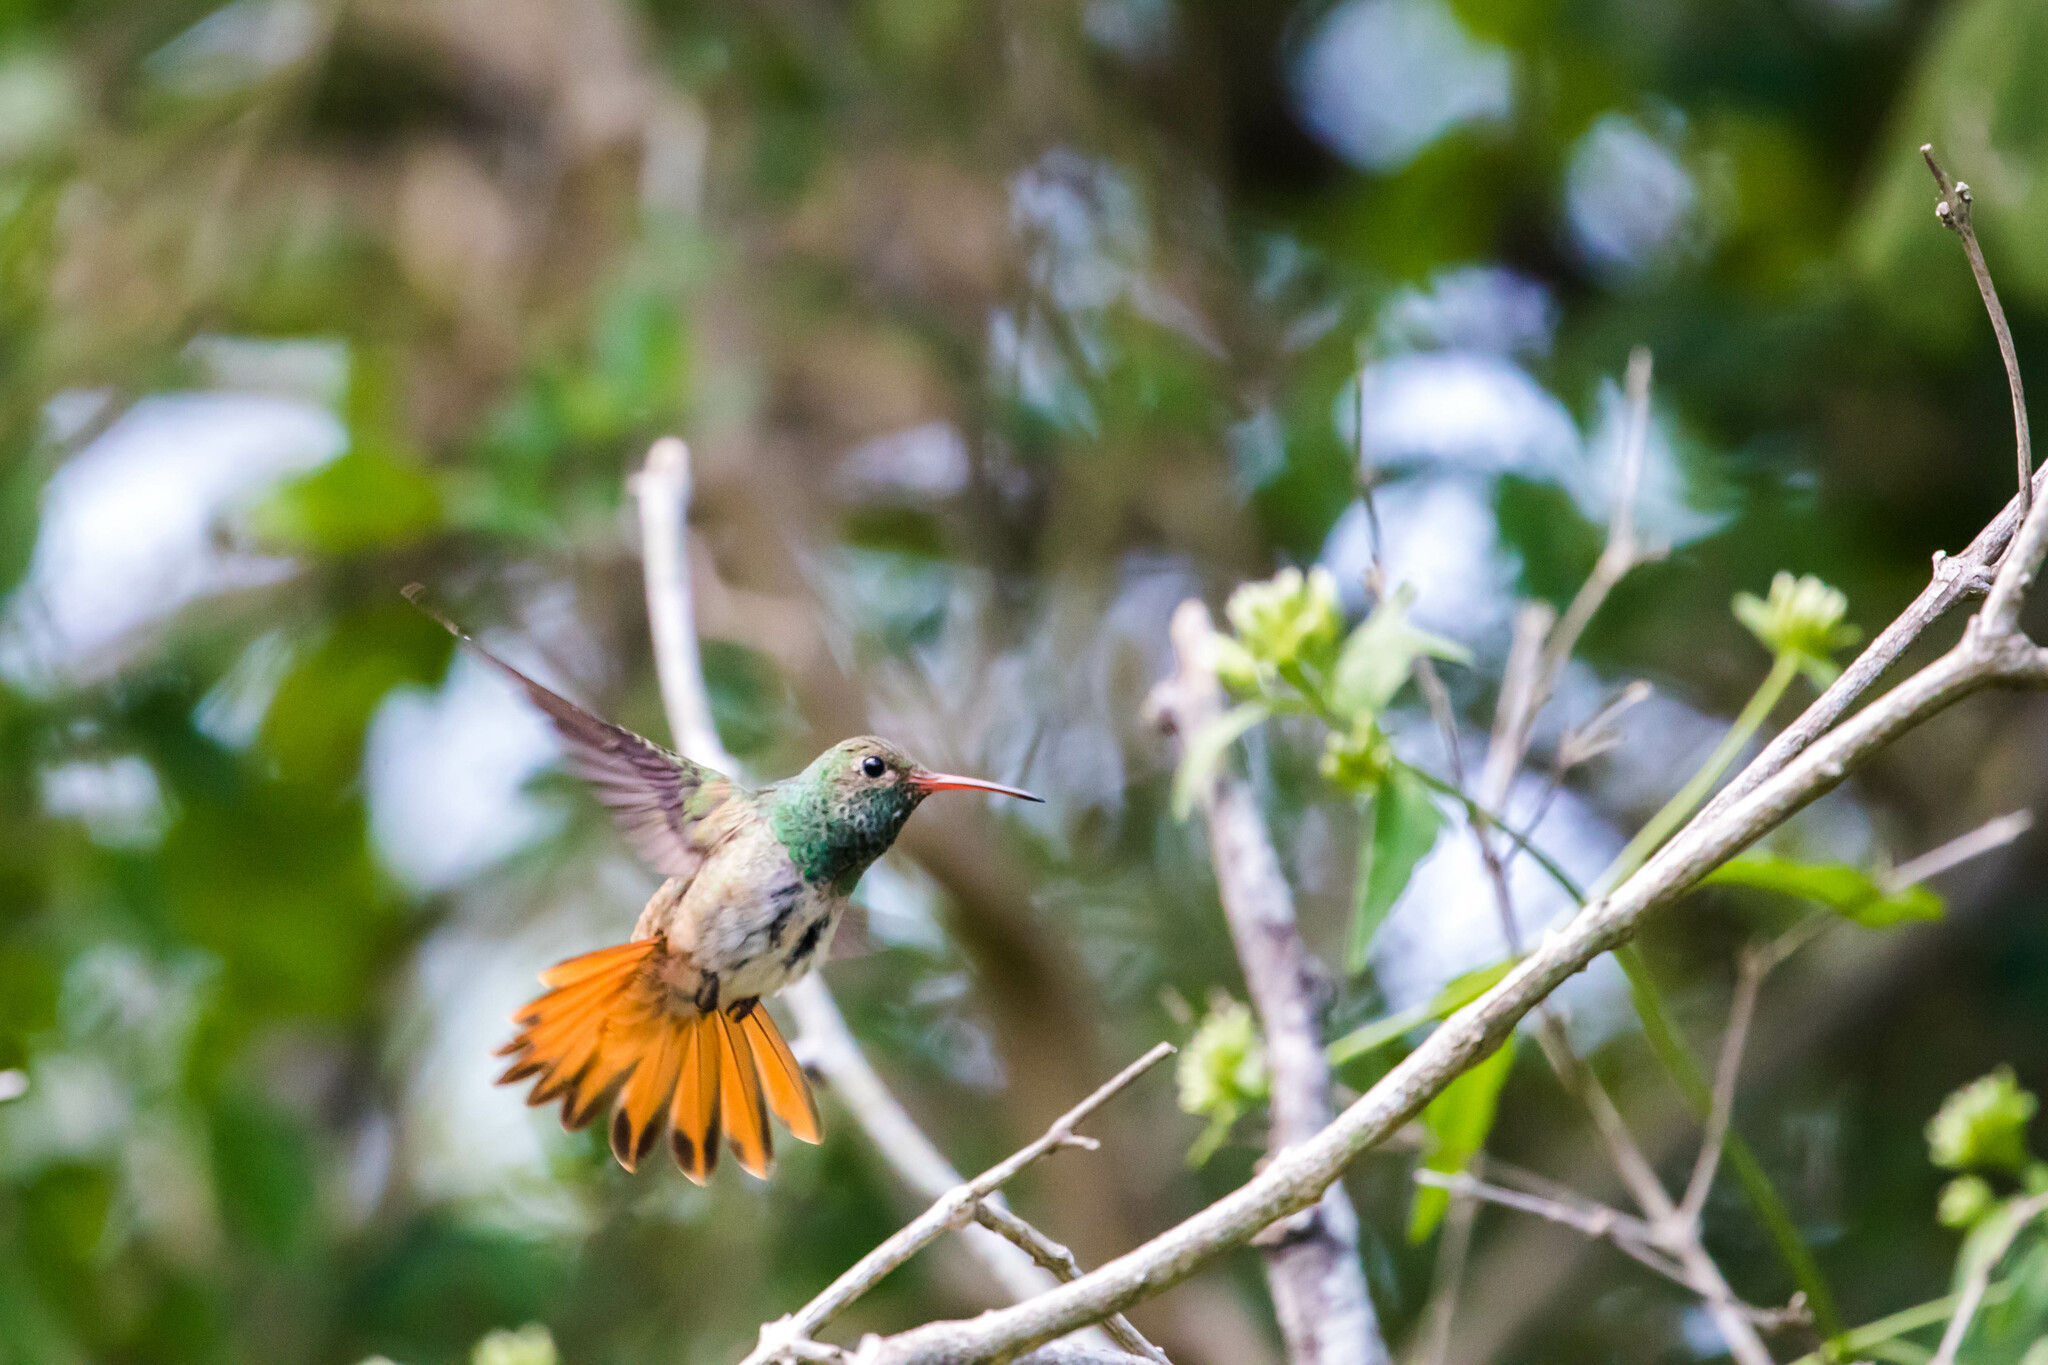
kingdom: Animalia
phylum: Chordata
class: Aves
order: Apodiformes
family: Trochilidae
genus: Amazilia
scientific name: Amazilia yucatanensis
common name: Buff-bellied hummingbird
